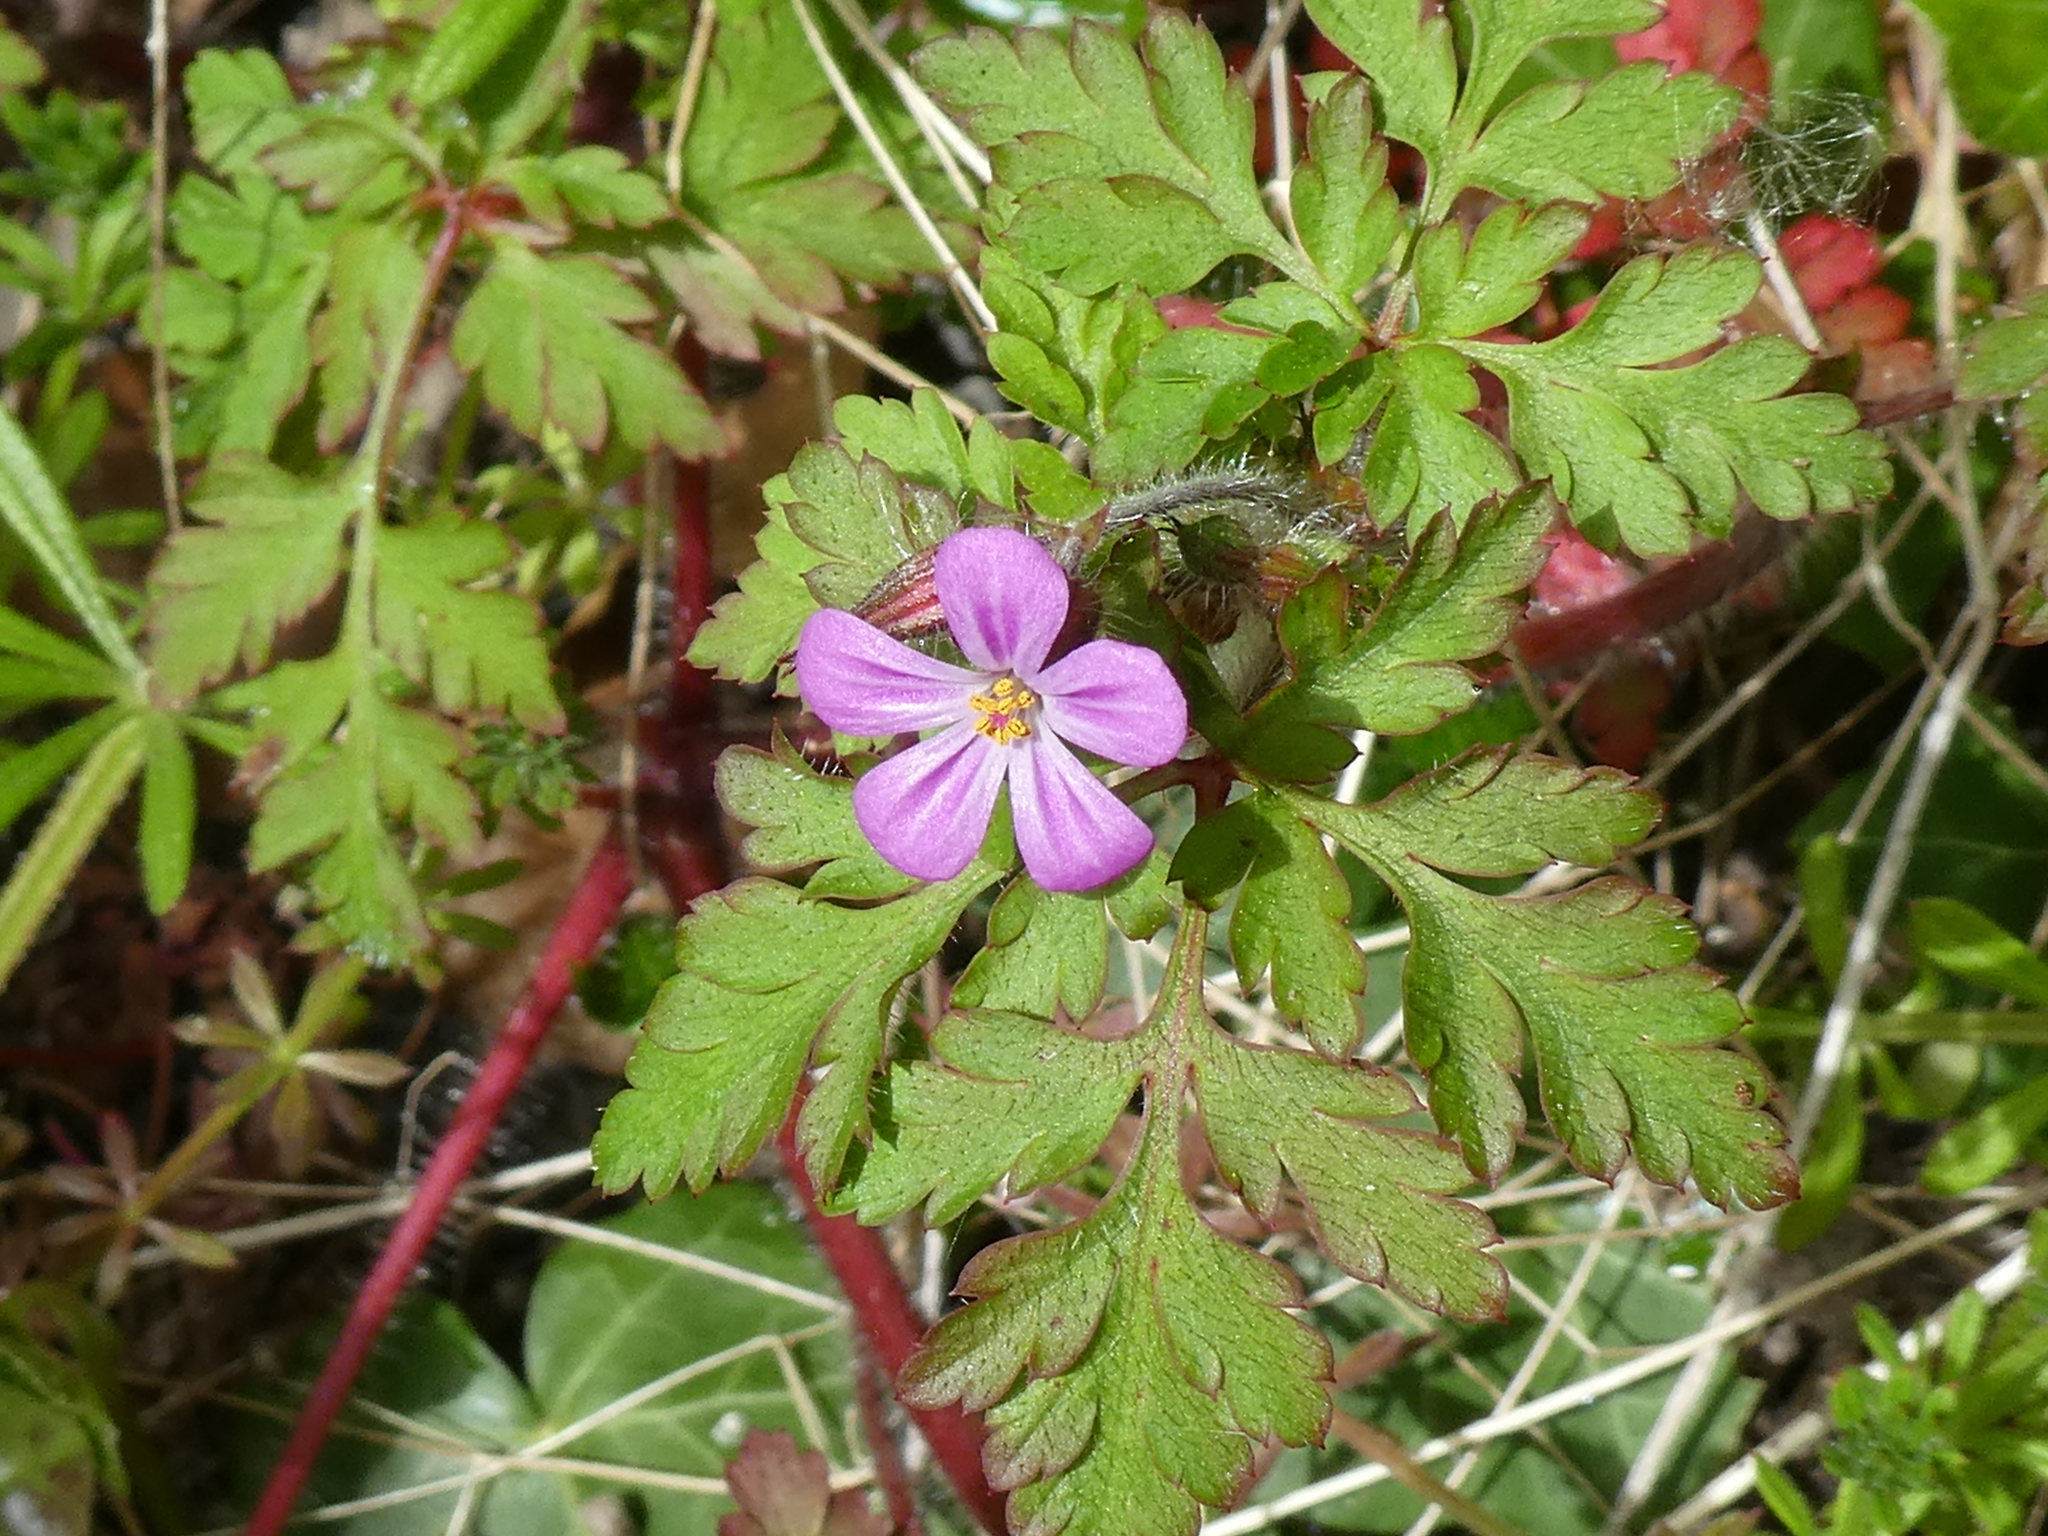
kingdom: Plantae
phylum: Tracheophyta
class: Magnoliopsida
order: Geraniales
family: Geraniaceae
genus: Geranium
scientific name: Geranium robertianum
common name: Herb-robert
